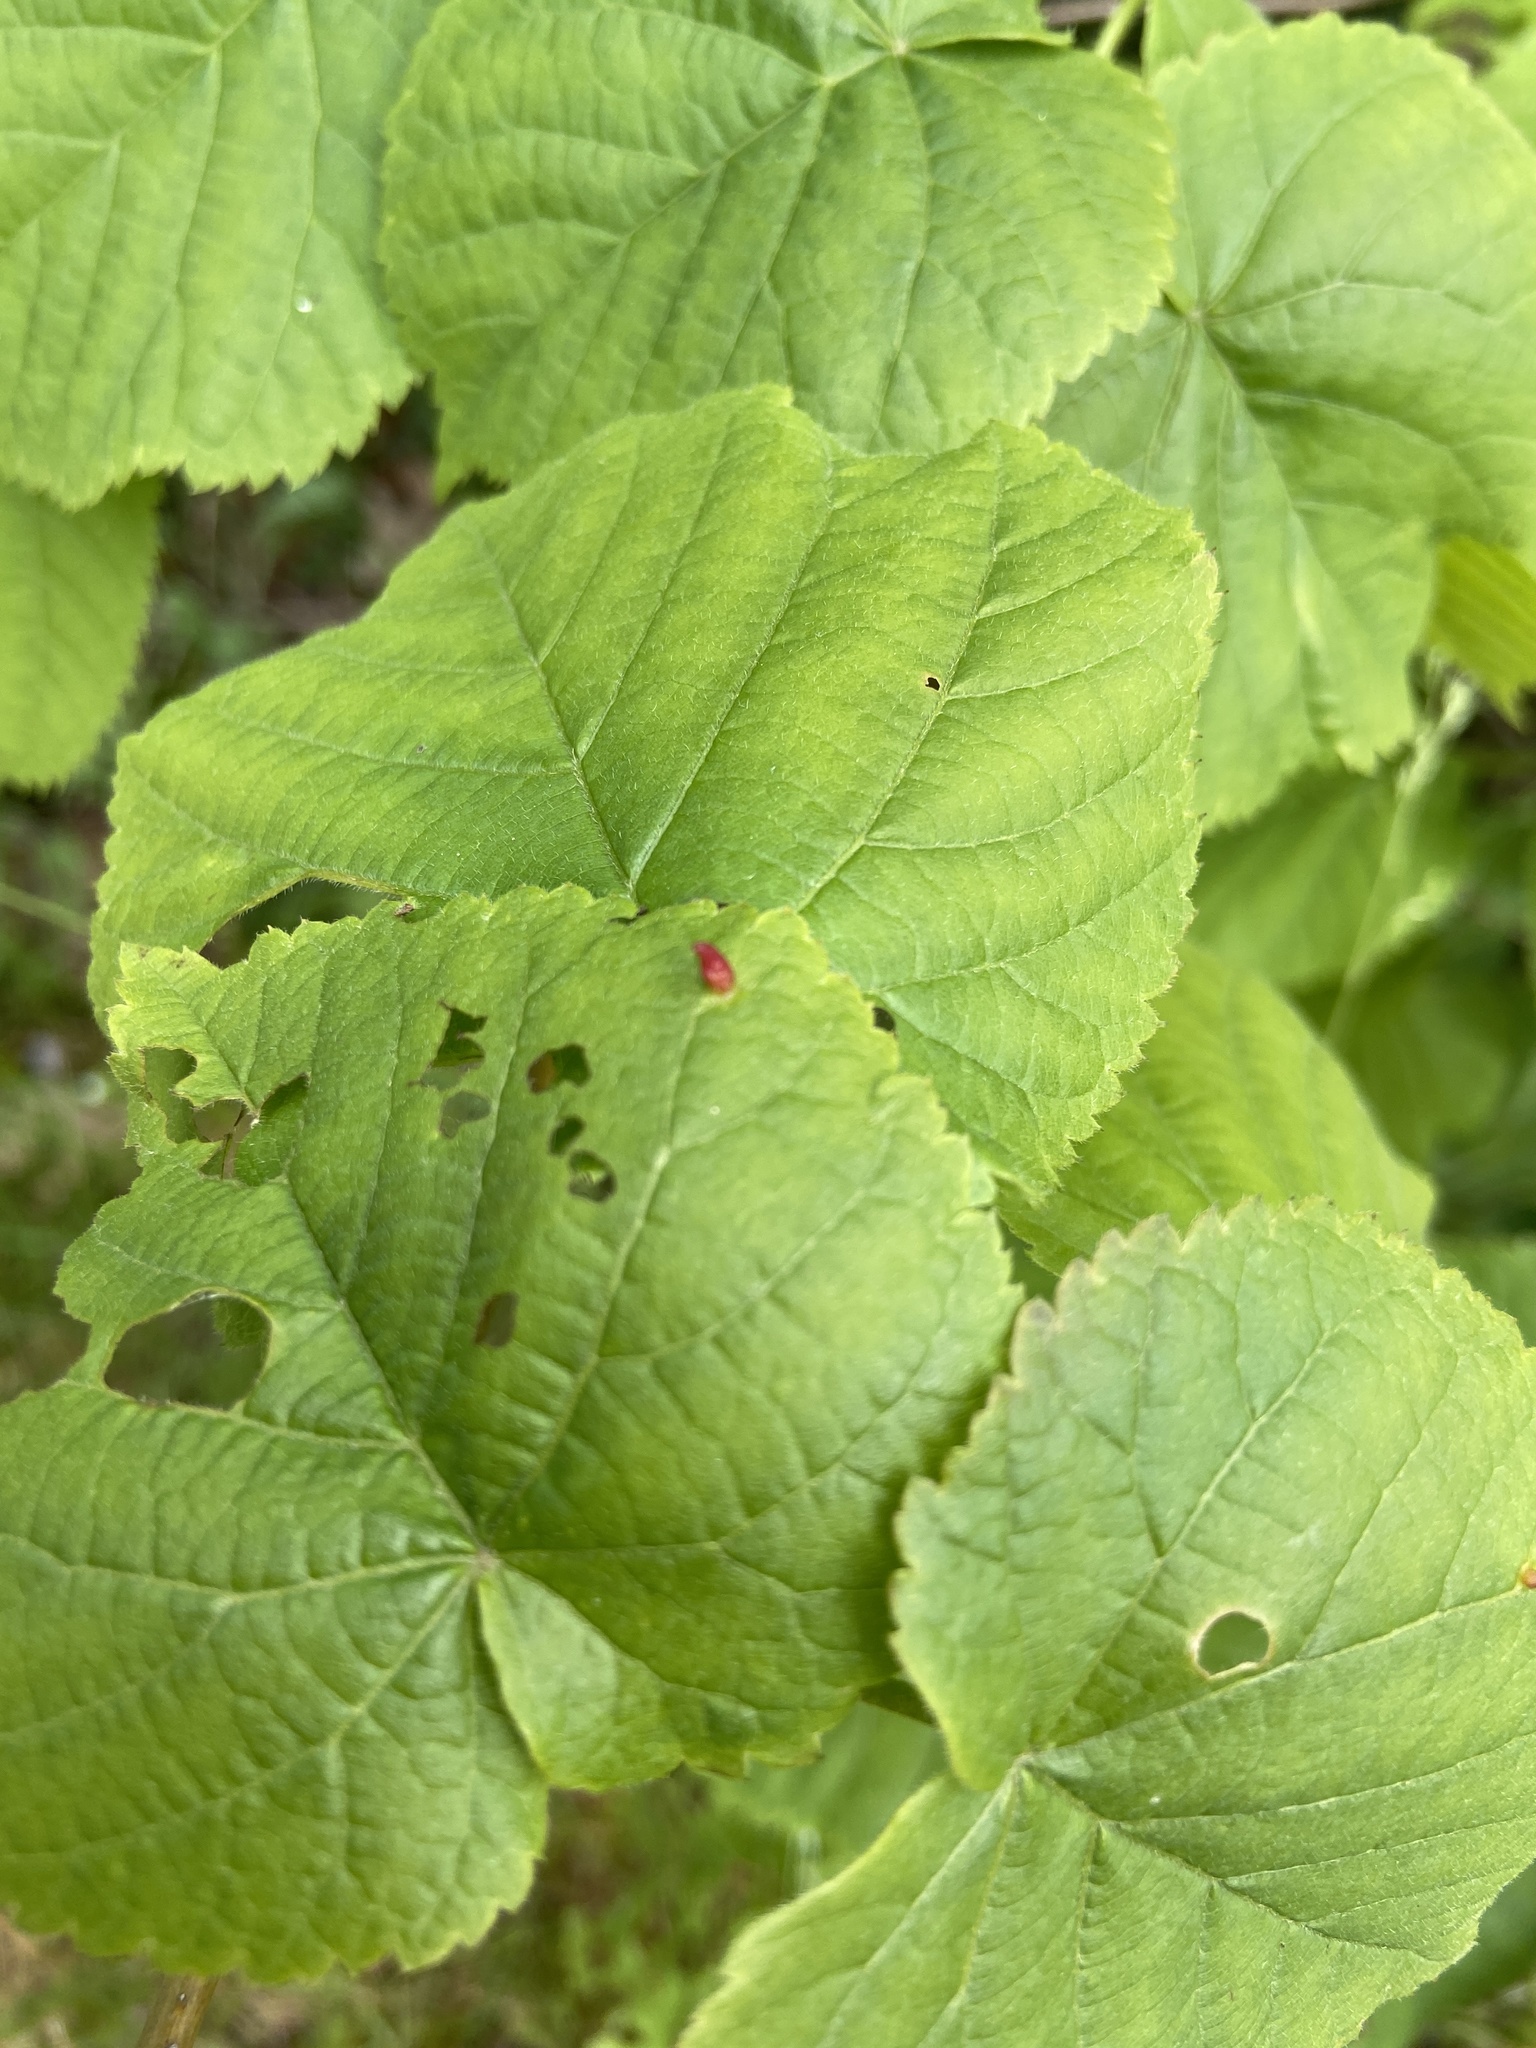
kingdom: Animalia
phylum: Arthropoda
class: Arachnida
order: Trombidiformes
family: Eriophyidae
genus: Eriophyes
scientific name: Eriophyes tiliae
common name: Red nail gall mite
